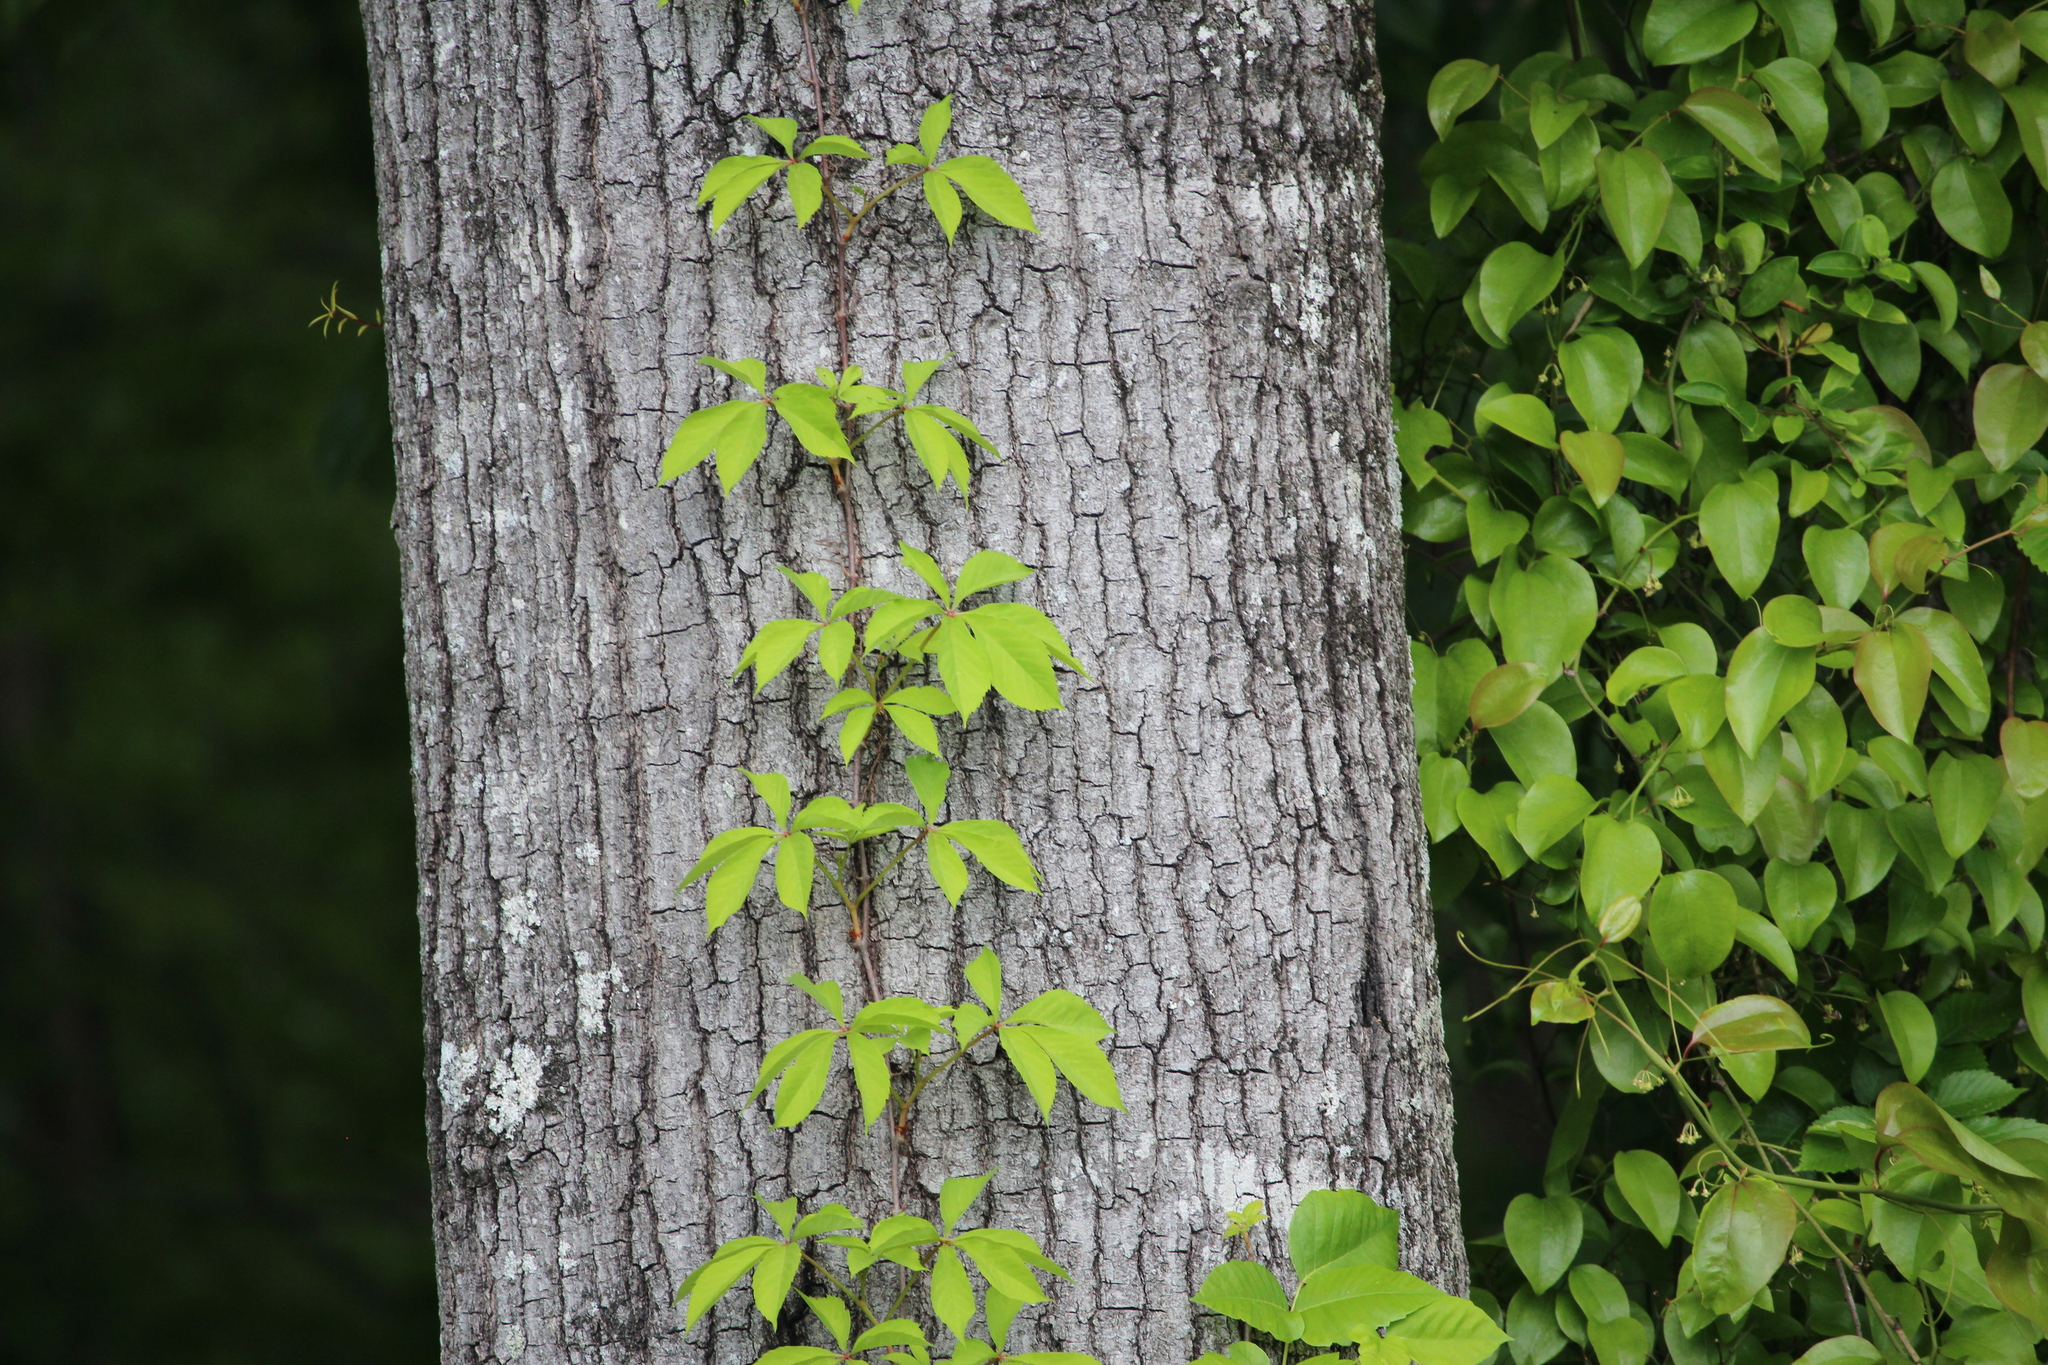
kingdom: Plantae
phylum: Tracheophyta
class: Magnoliopsida
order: Vitales
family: Vitaceae
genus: Parthenocissus
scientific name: Parthenocissus quinquefolia
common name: Virginia-creeper
